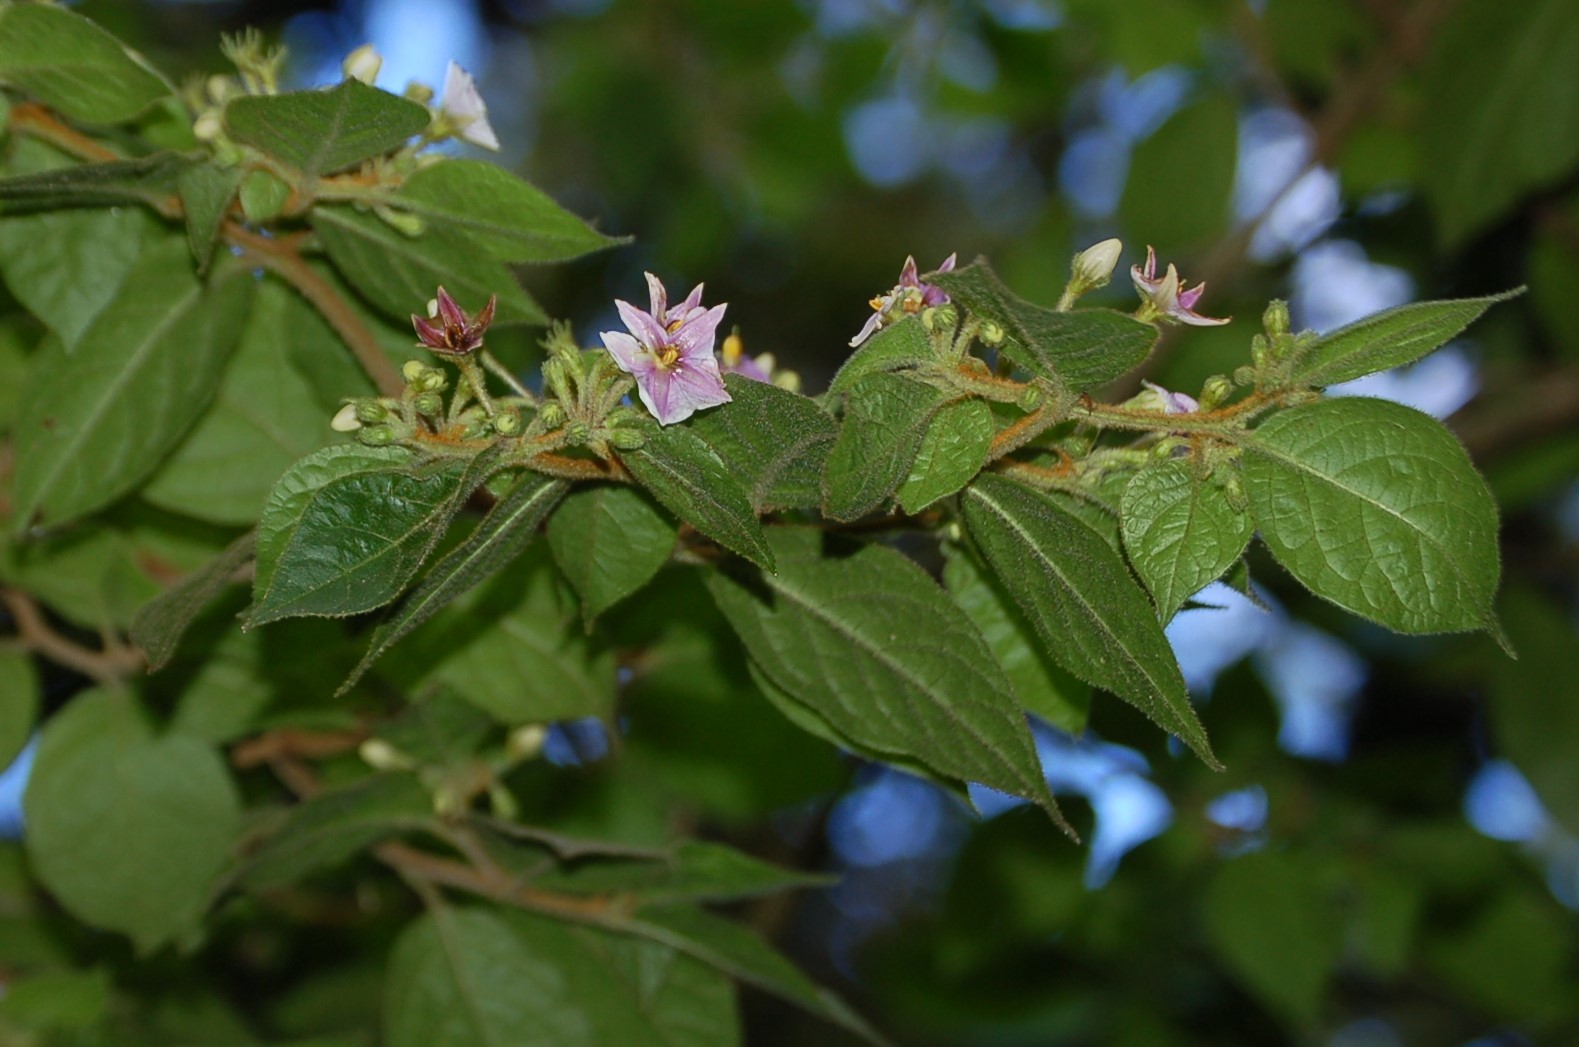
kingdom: Plantae
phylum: Tracheophyta
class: Magnoliopsida
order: Solanales
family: Solanaceae
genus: Lycianthes
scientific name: Lycianthes purpusii
